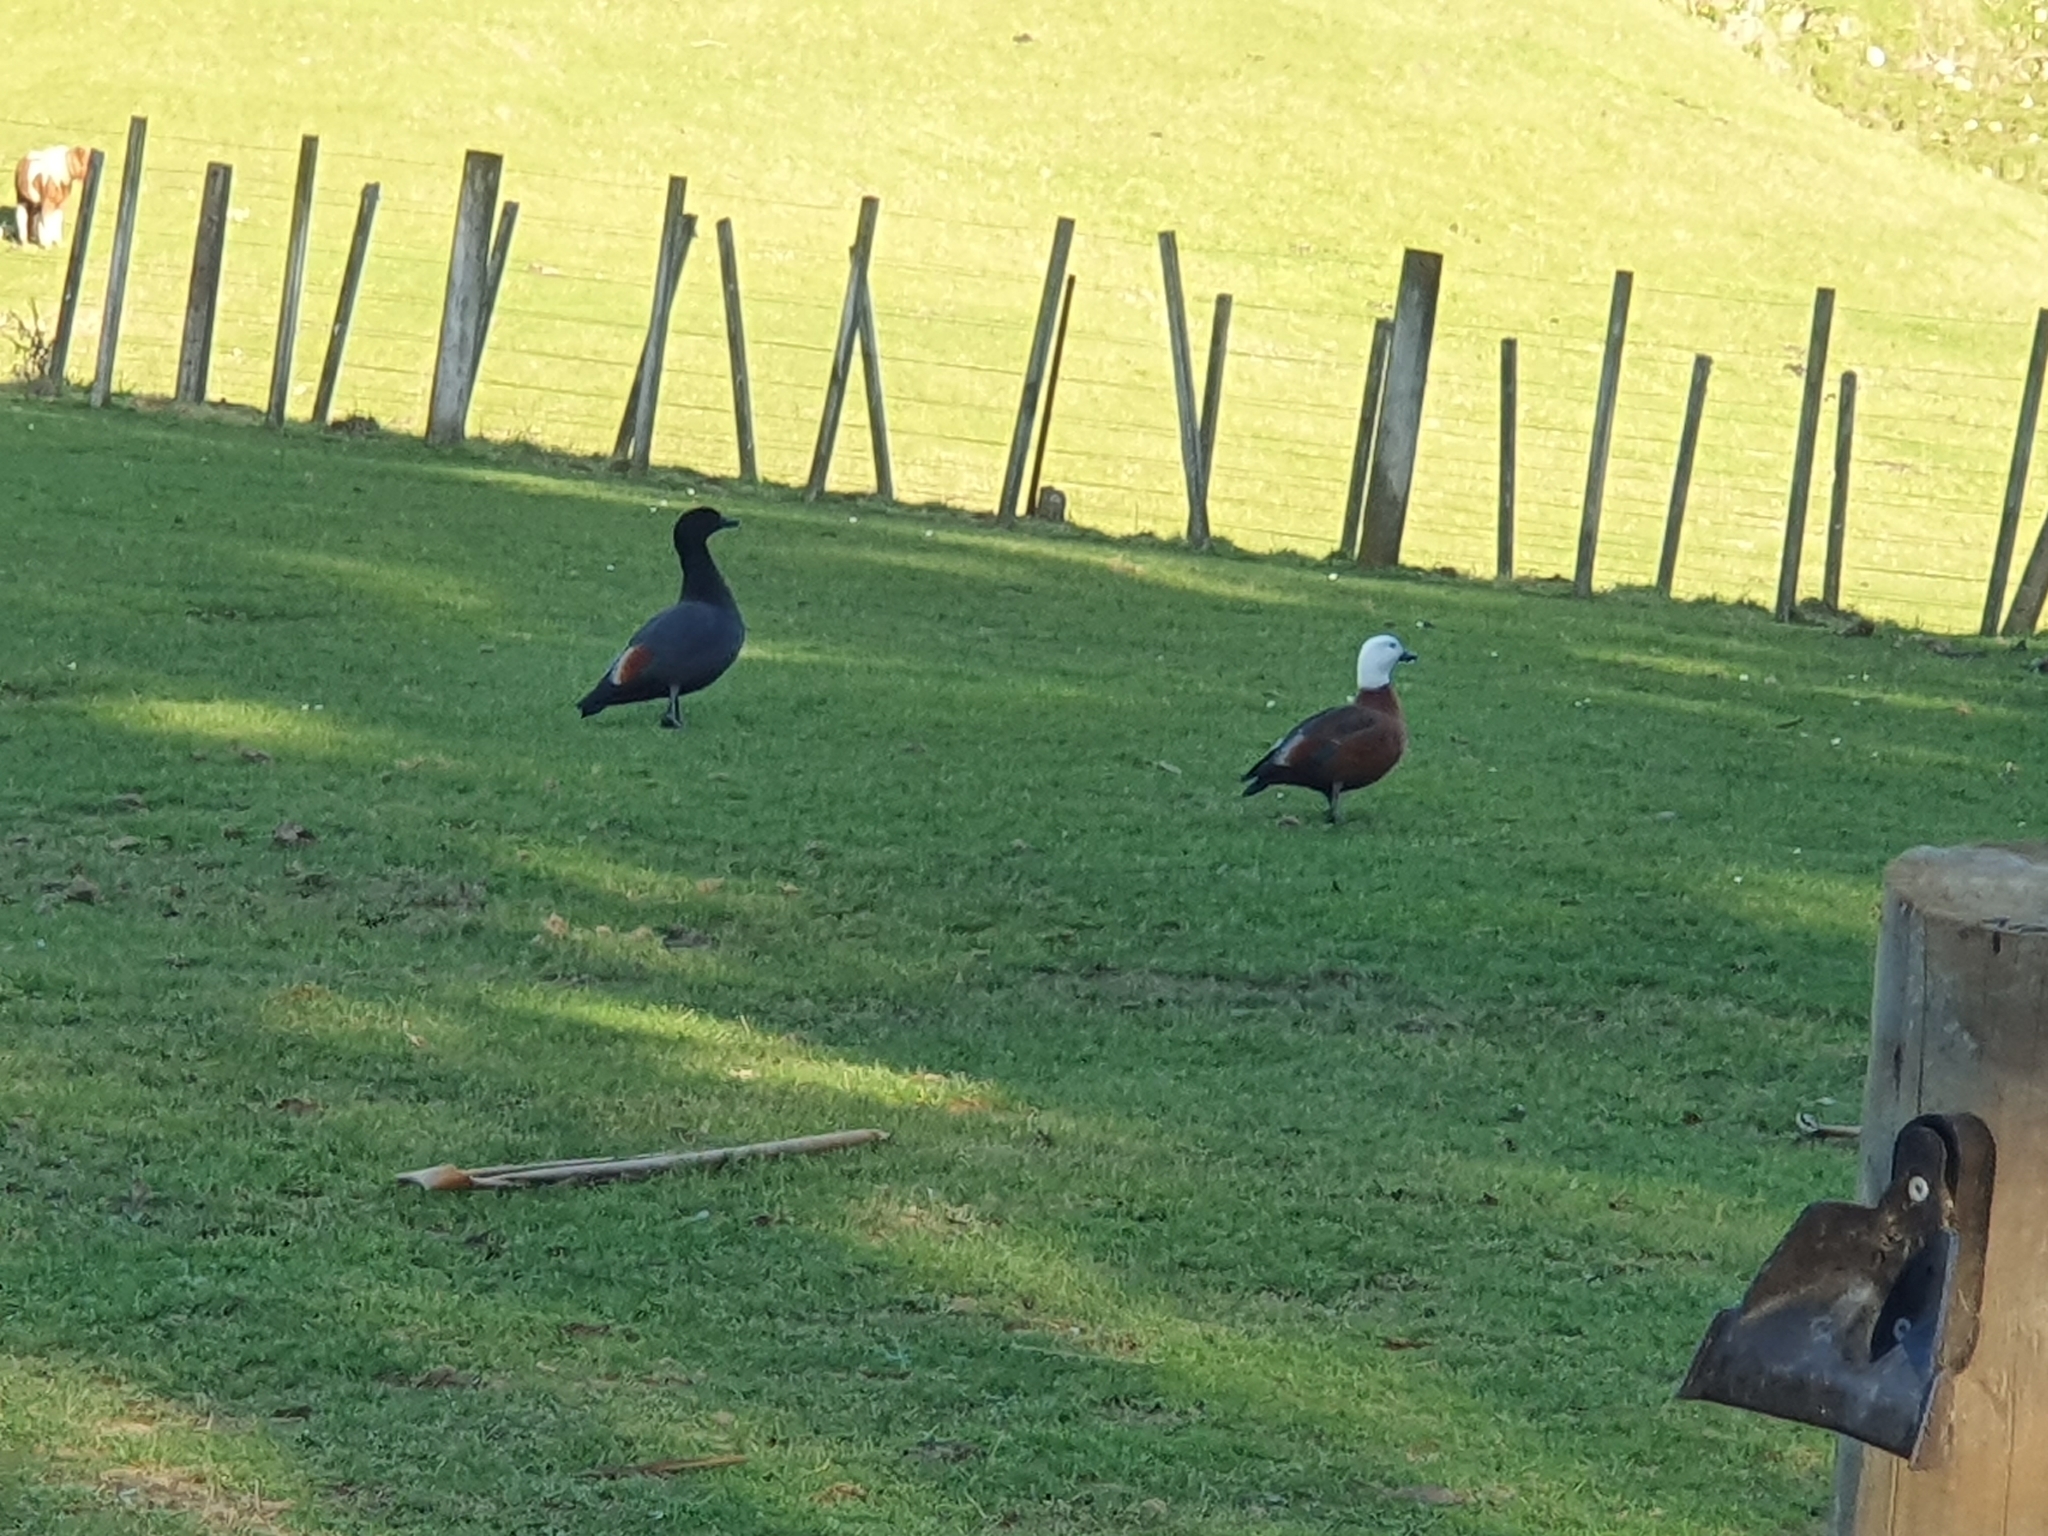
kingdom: Animalia
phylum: Chordata
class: Aves
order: Anseriformes
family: Anatidae
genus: Tadorna
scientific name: Tadorna variegata
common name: Paradise shelduck
